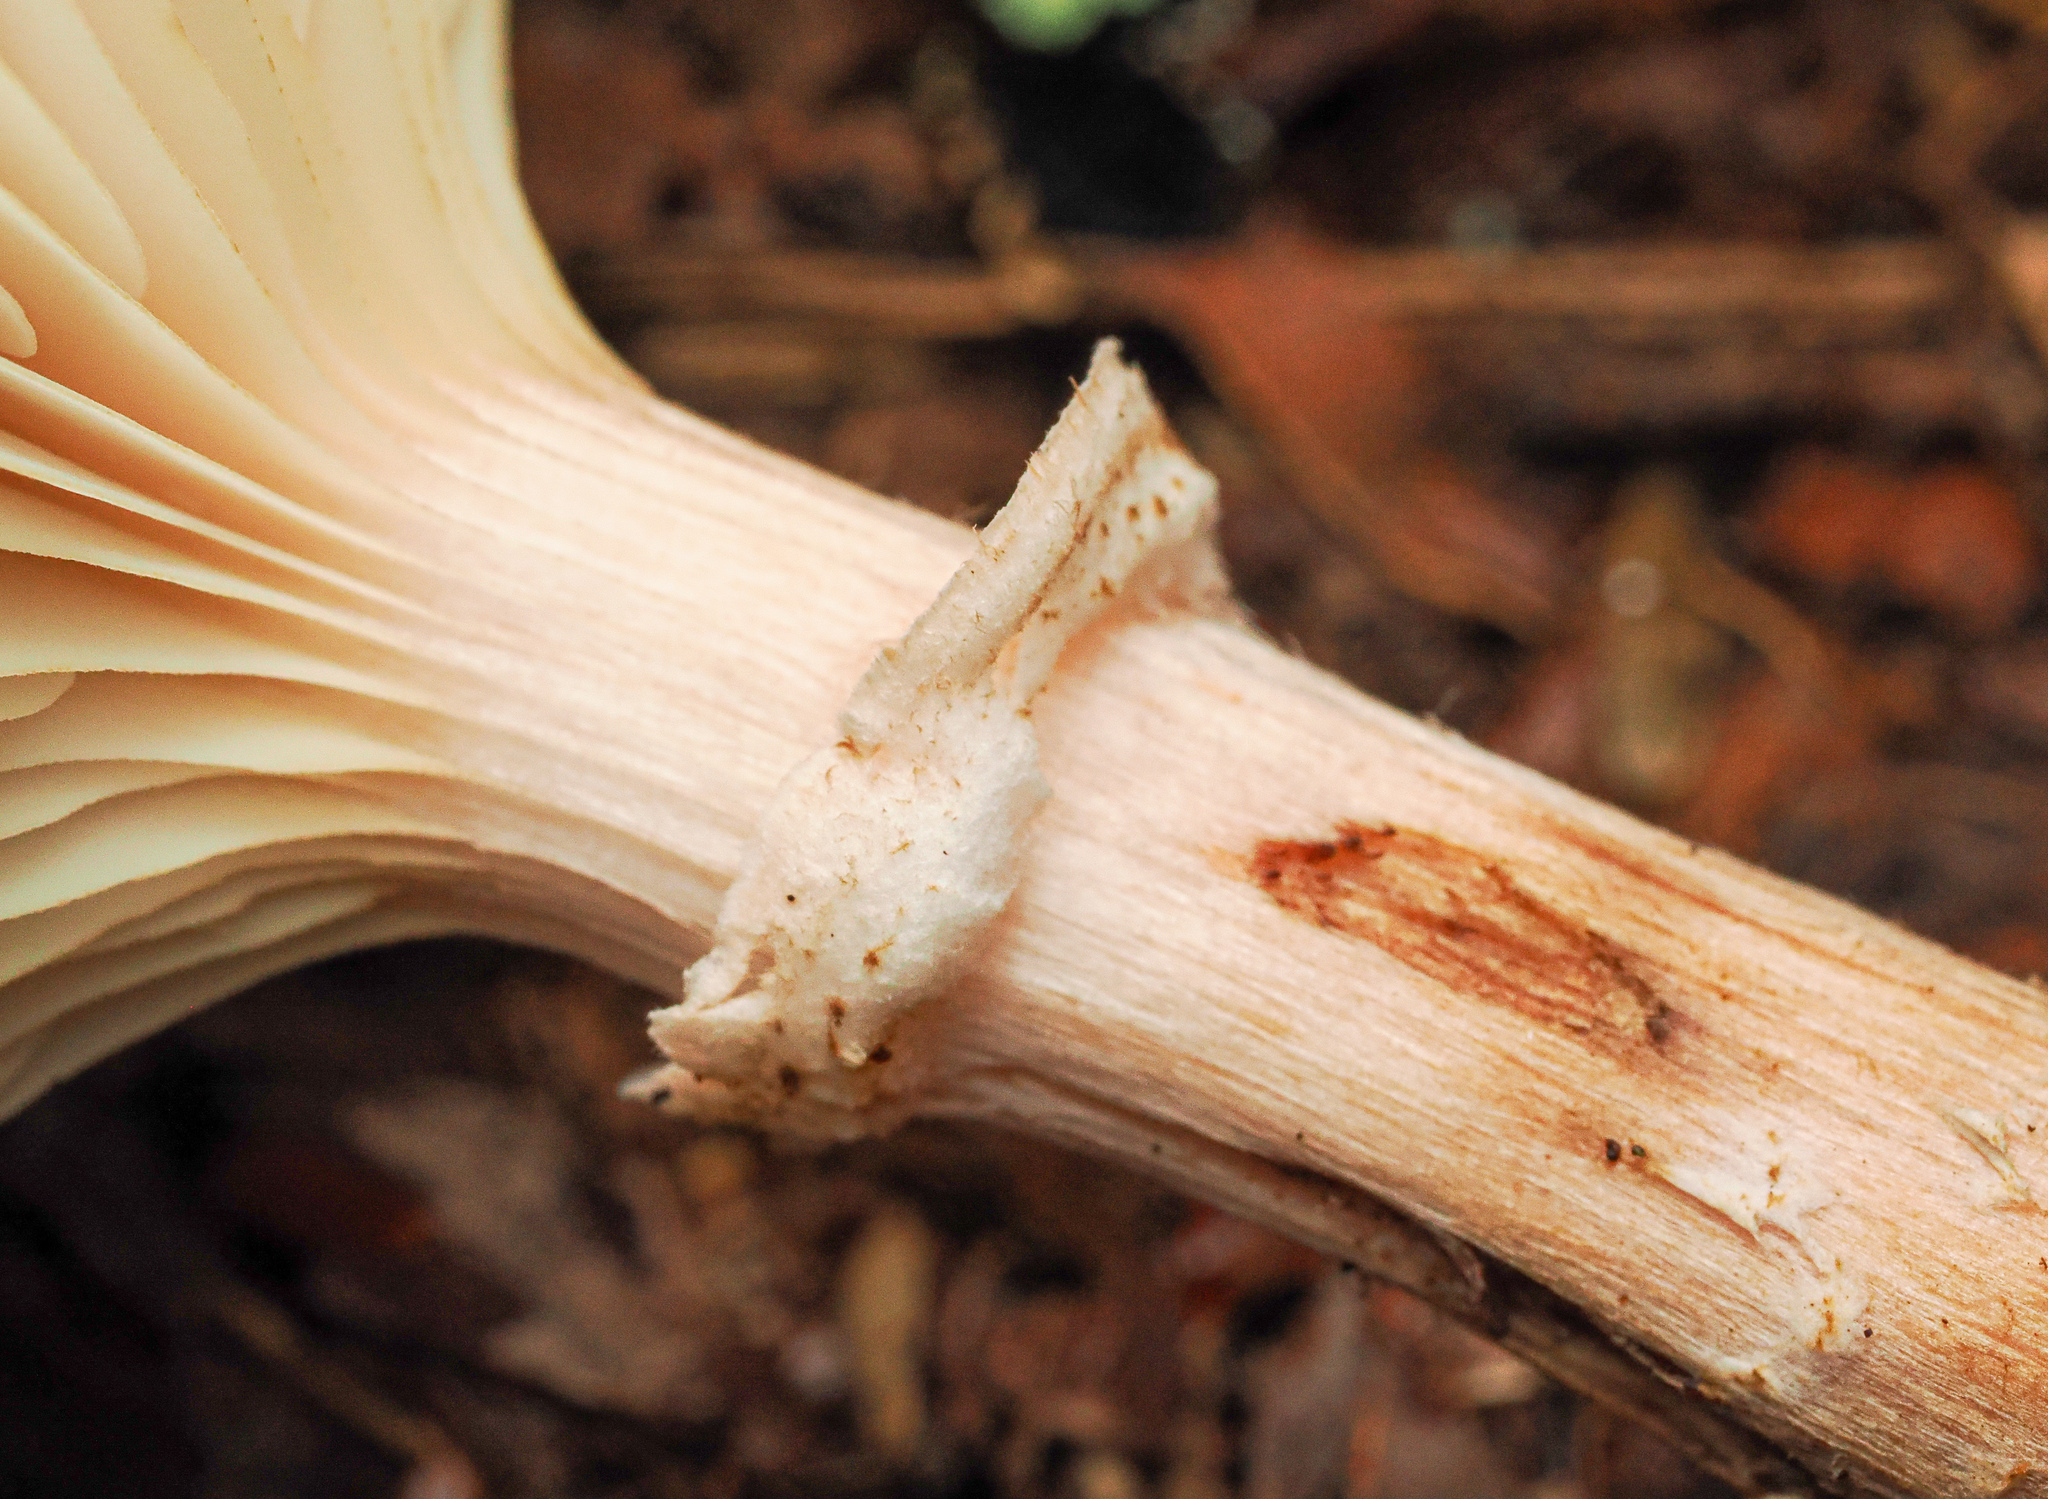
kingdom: Fungi
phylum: Basidiomycota
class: Agaricomycetes
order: Agaricales
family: Physalacriaceae
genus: Armillaria
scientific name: Armillaria solidipes
